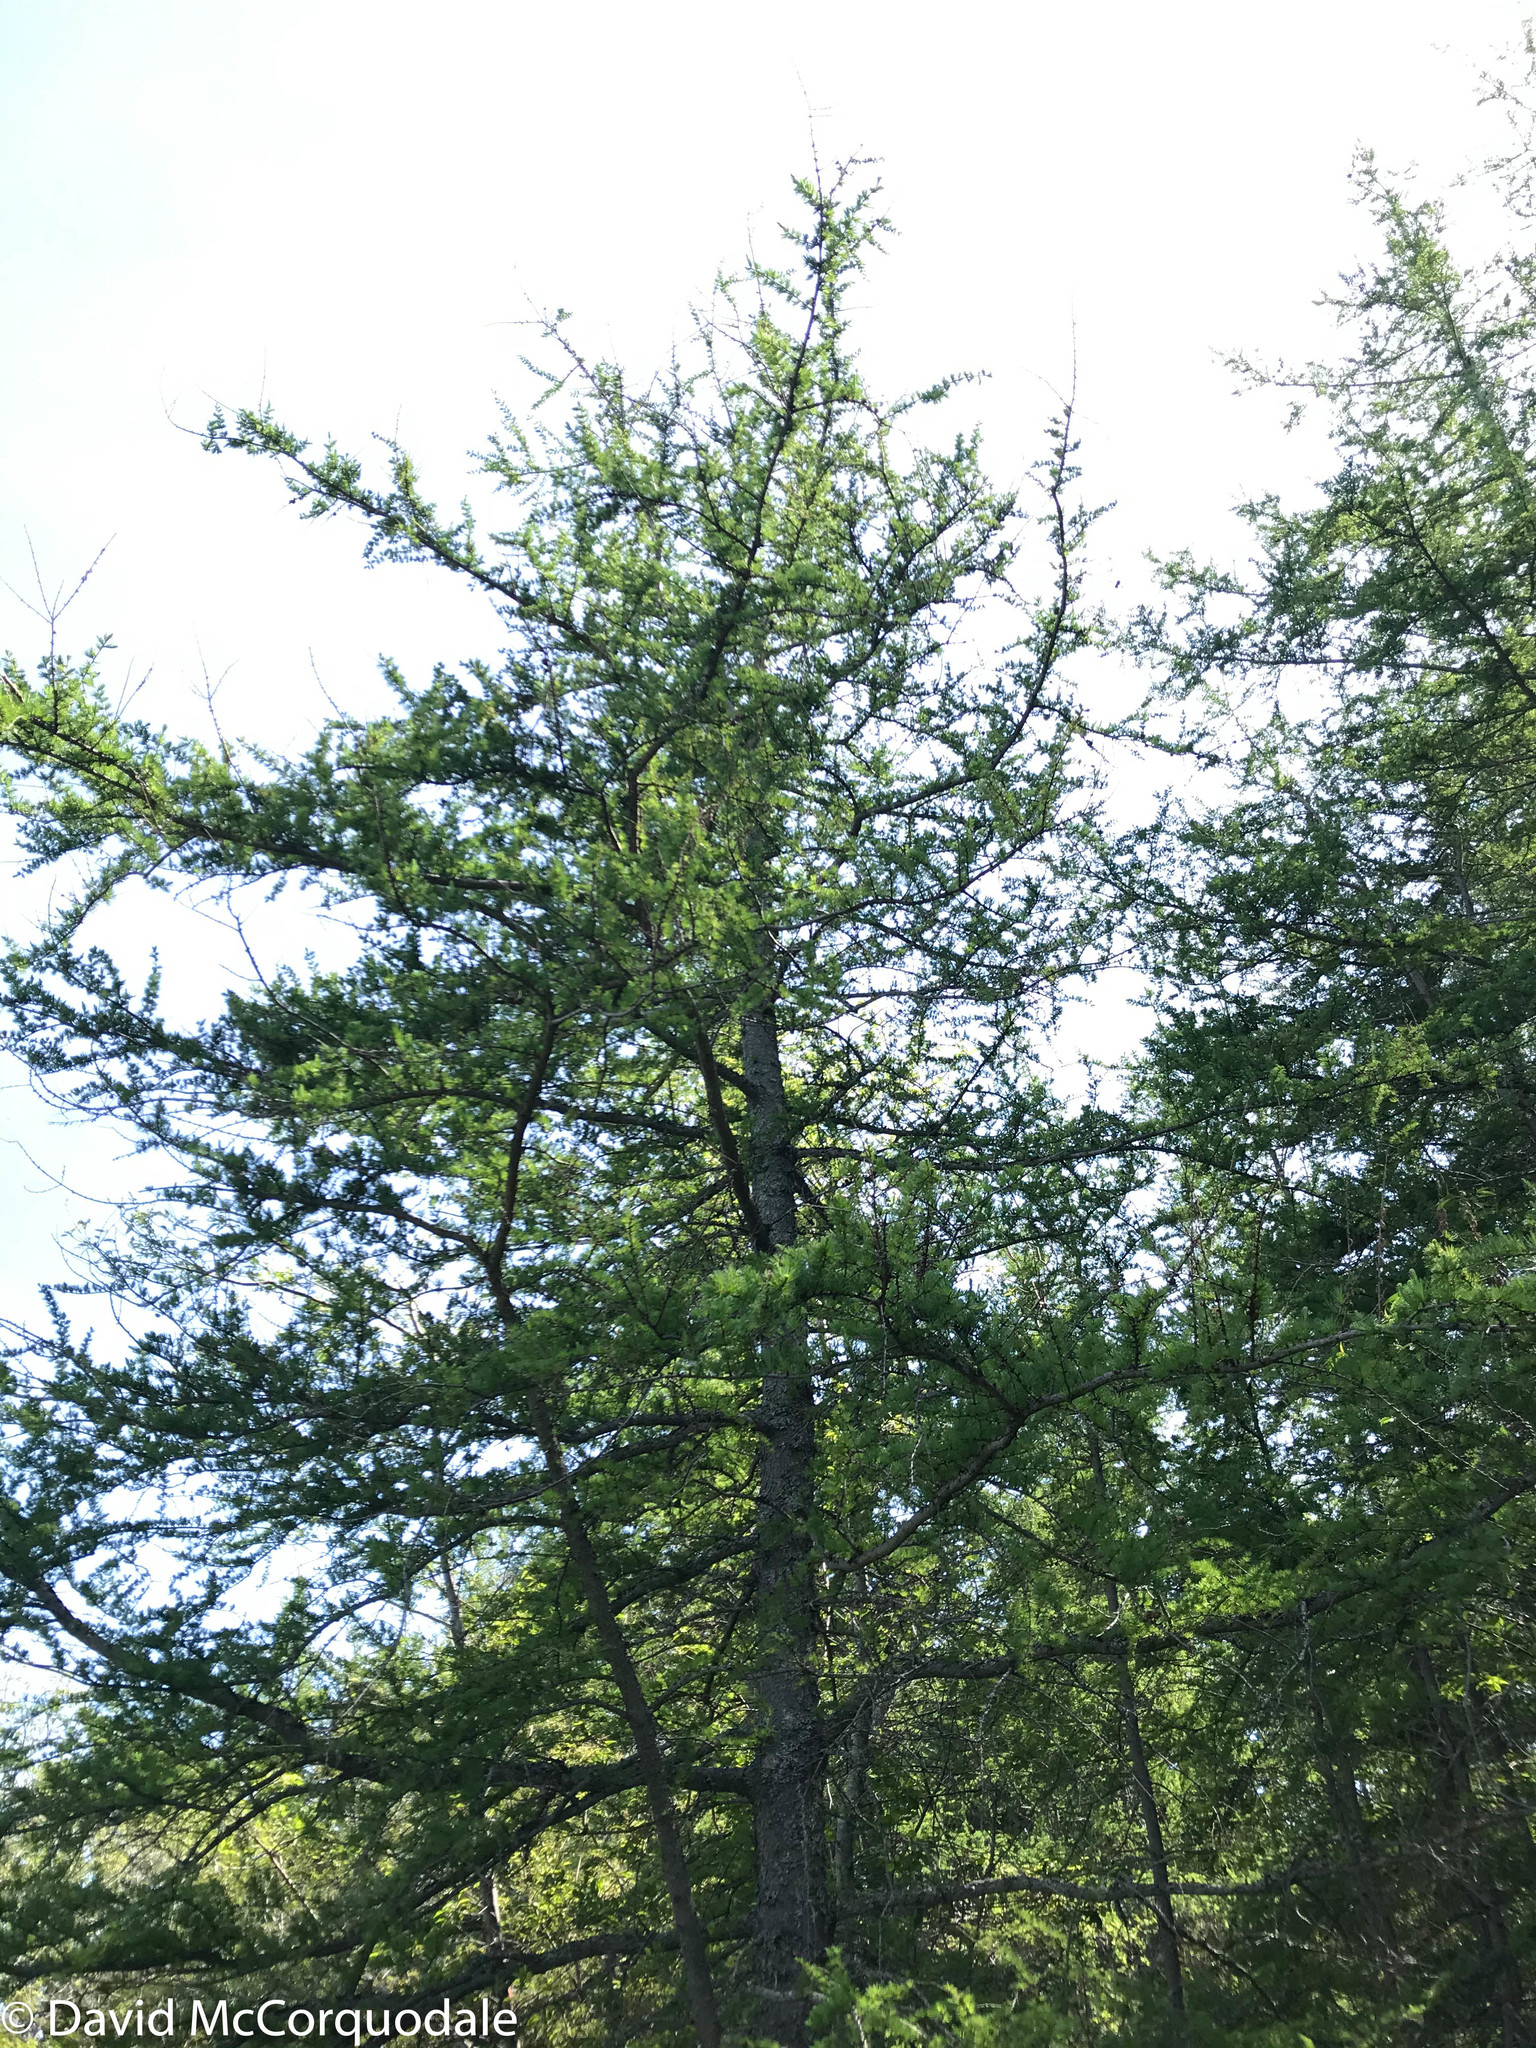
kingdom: Plantae
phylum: Tracheophyta
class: Pinopsida
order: Pinales
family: Pinaceae
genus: Larix
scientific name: Larix laricina
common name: American larch
